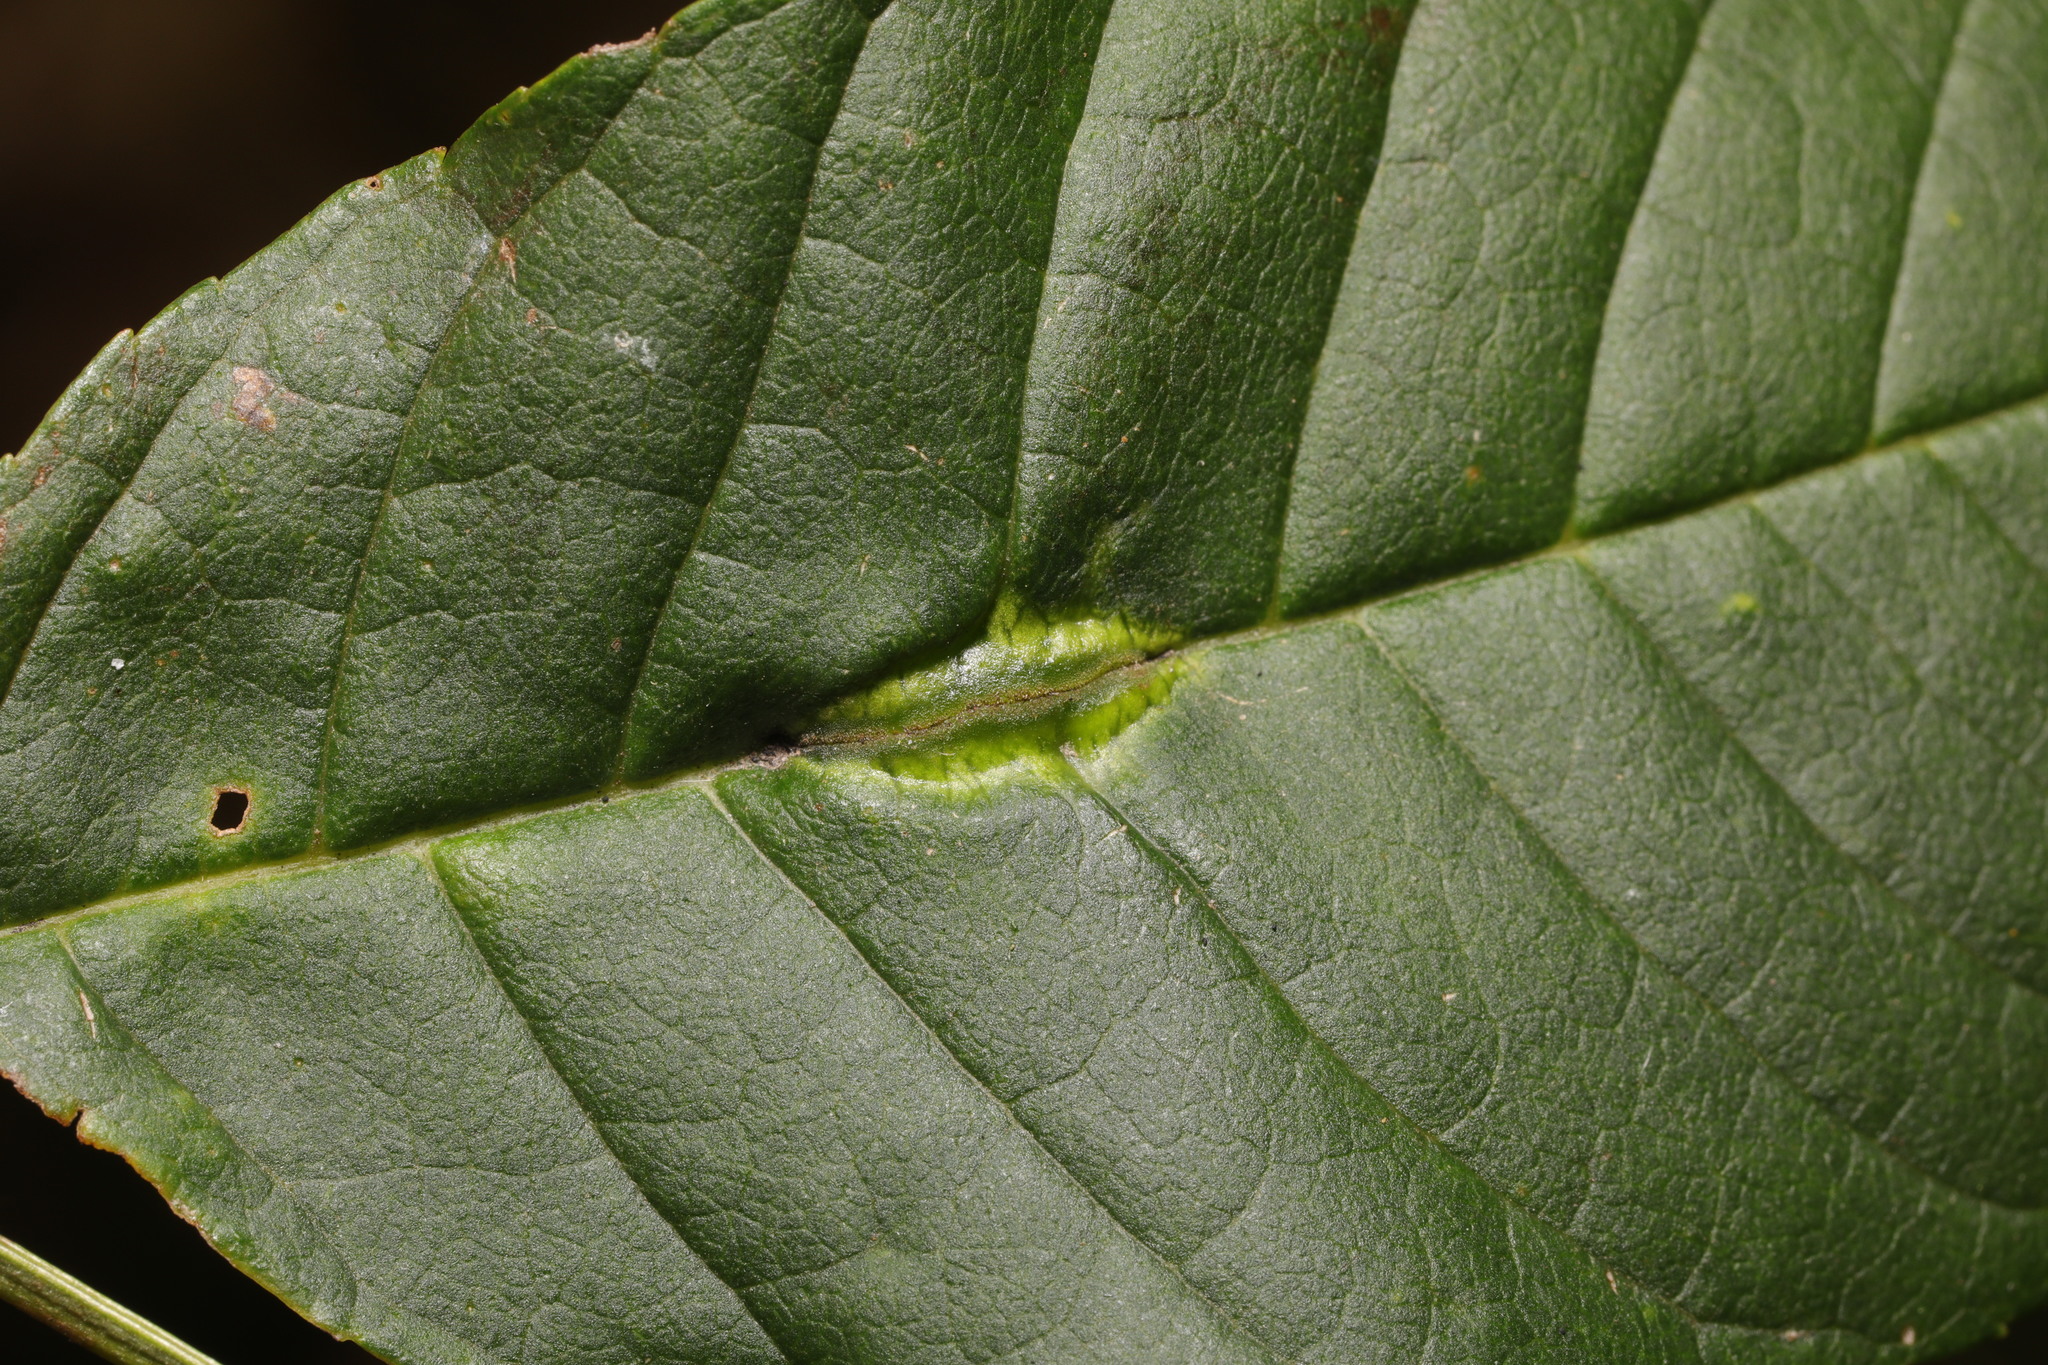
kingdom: Animalia
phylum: Arthropoda
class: Insecta
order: Diptera
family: Cecidomyiidae
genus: Dasineura
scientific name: Dasineura fraxini
